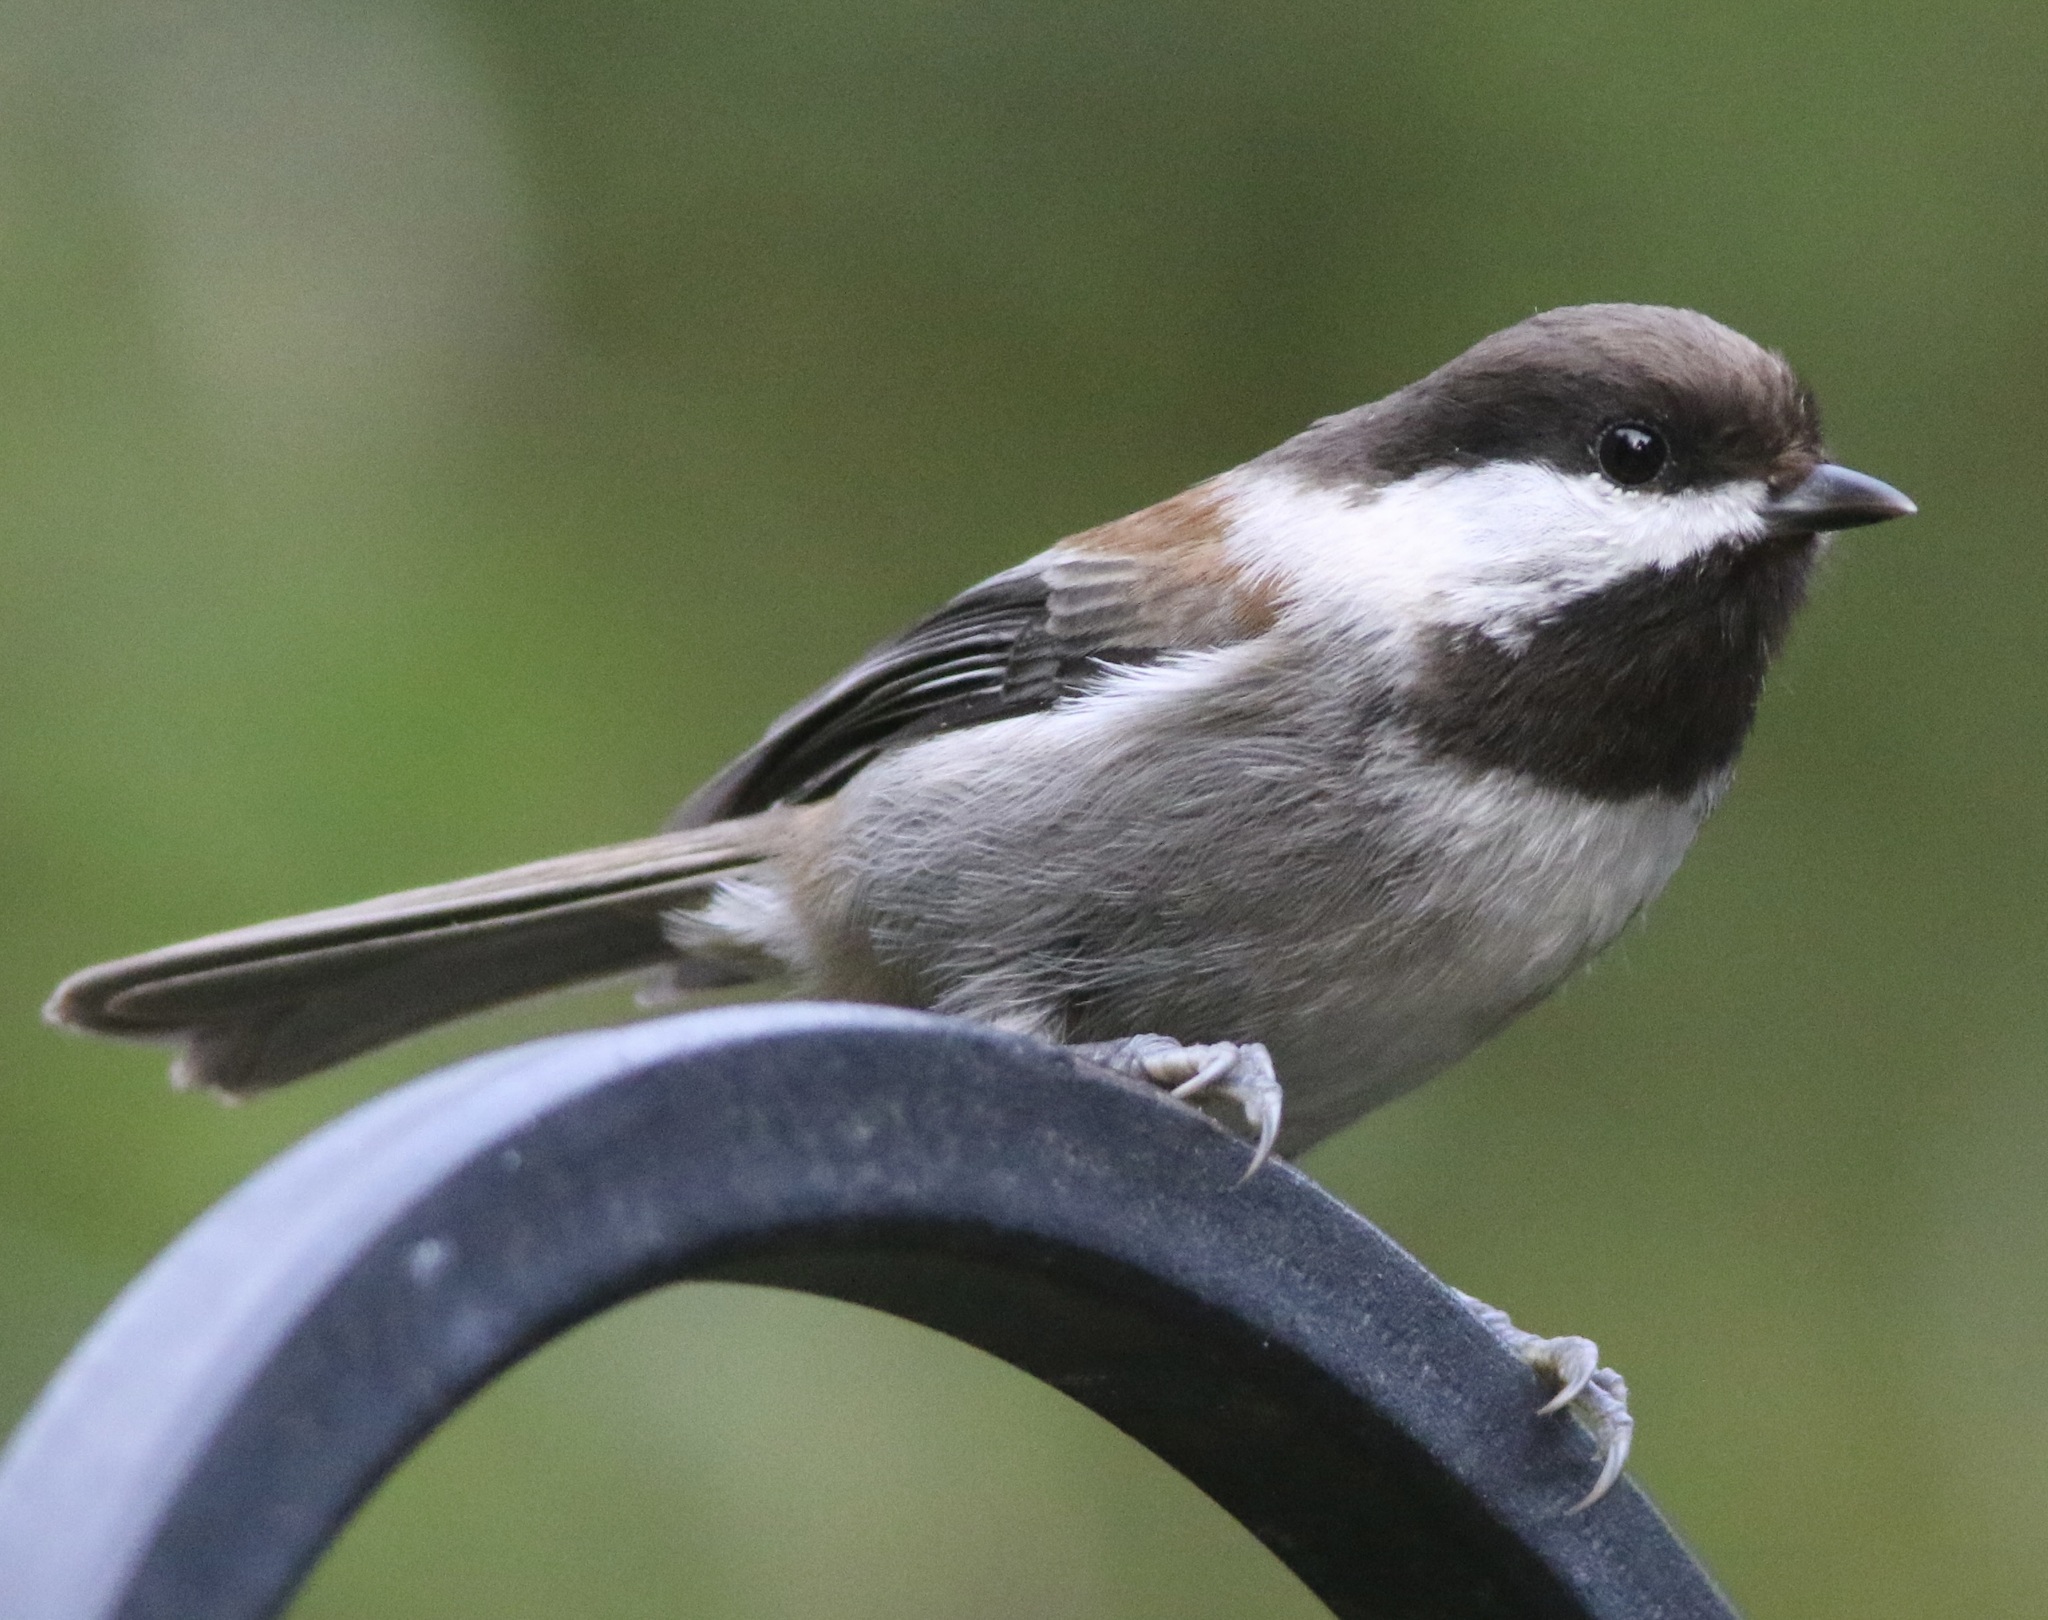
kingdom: Animalia
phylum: Chordata
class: Aves
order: Passeriformes
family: Paridae
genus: Poecile
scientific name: Poecile rufescens
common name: Chestnut-backed chickadee
